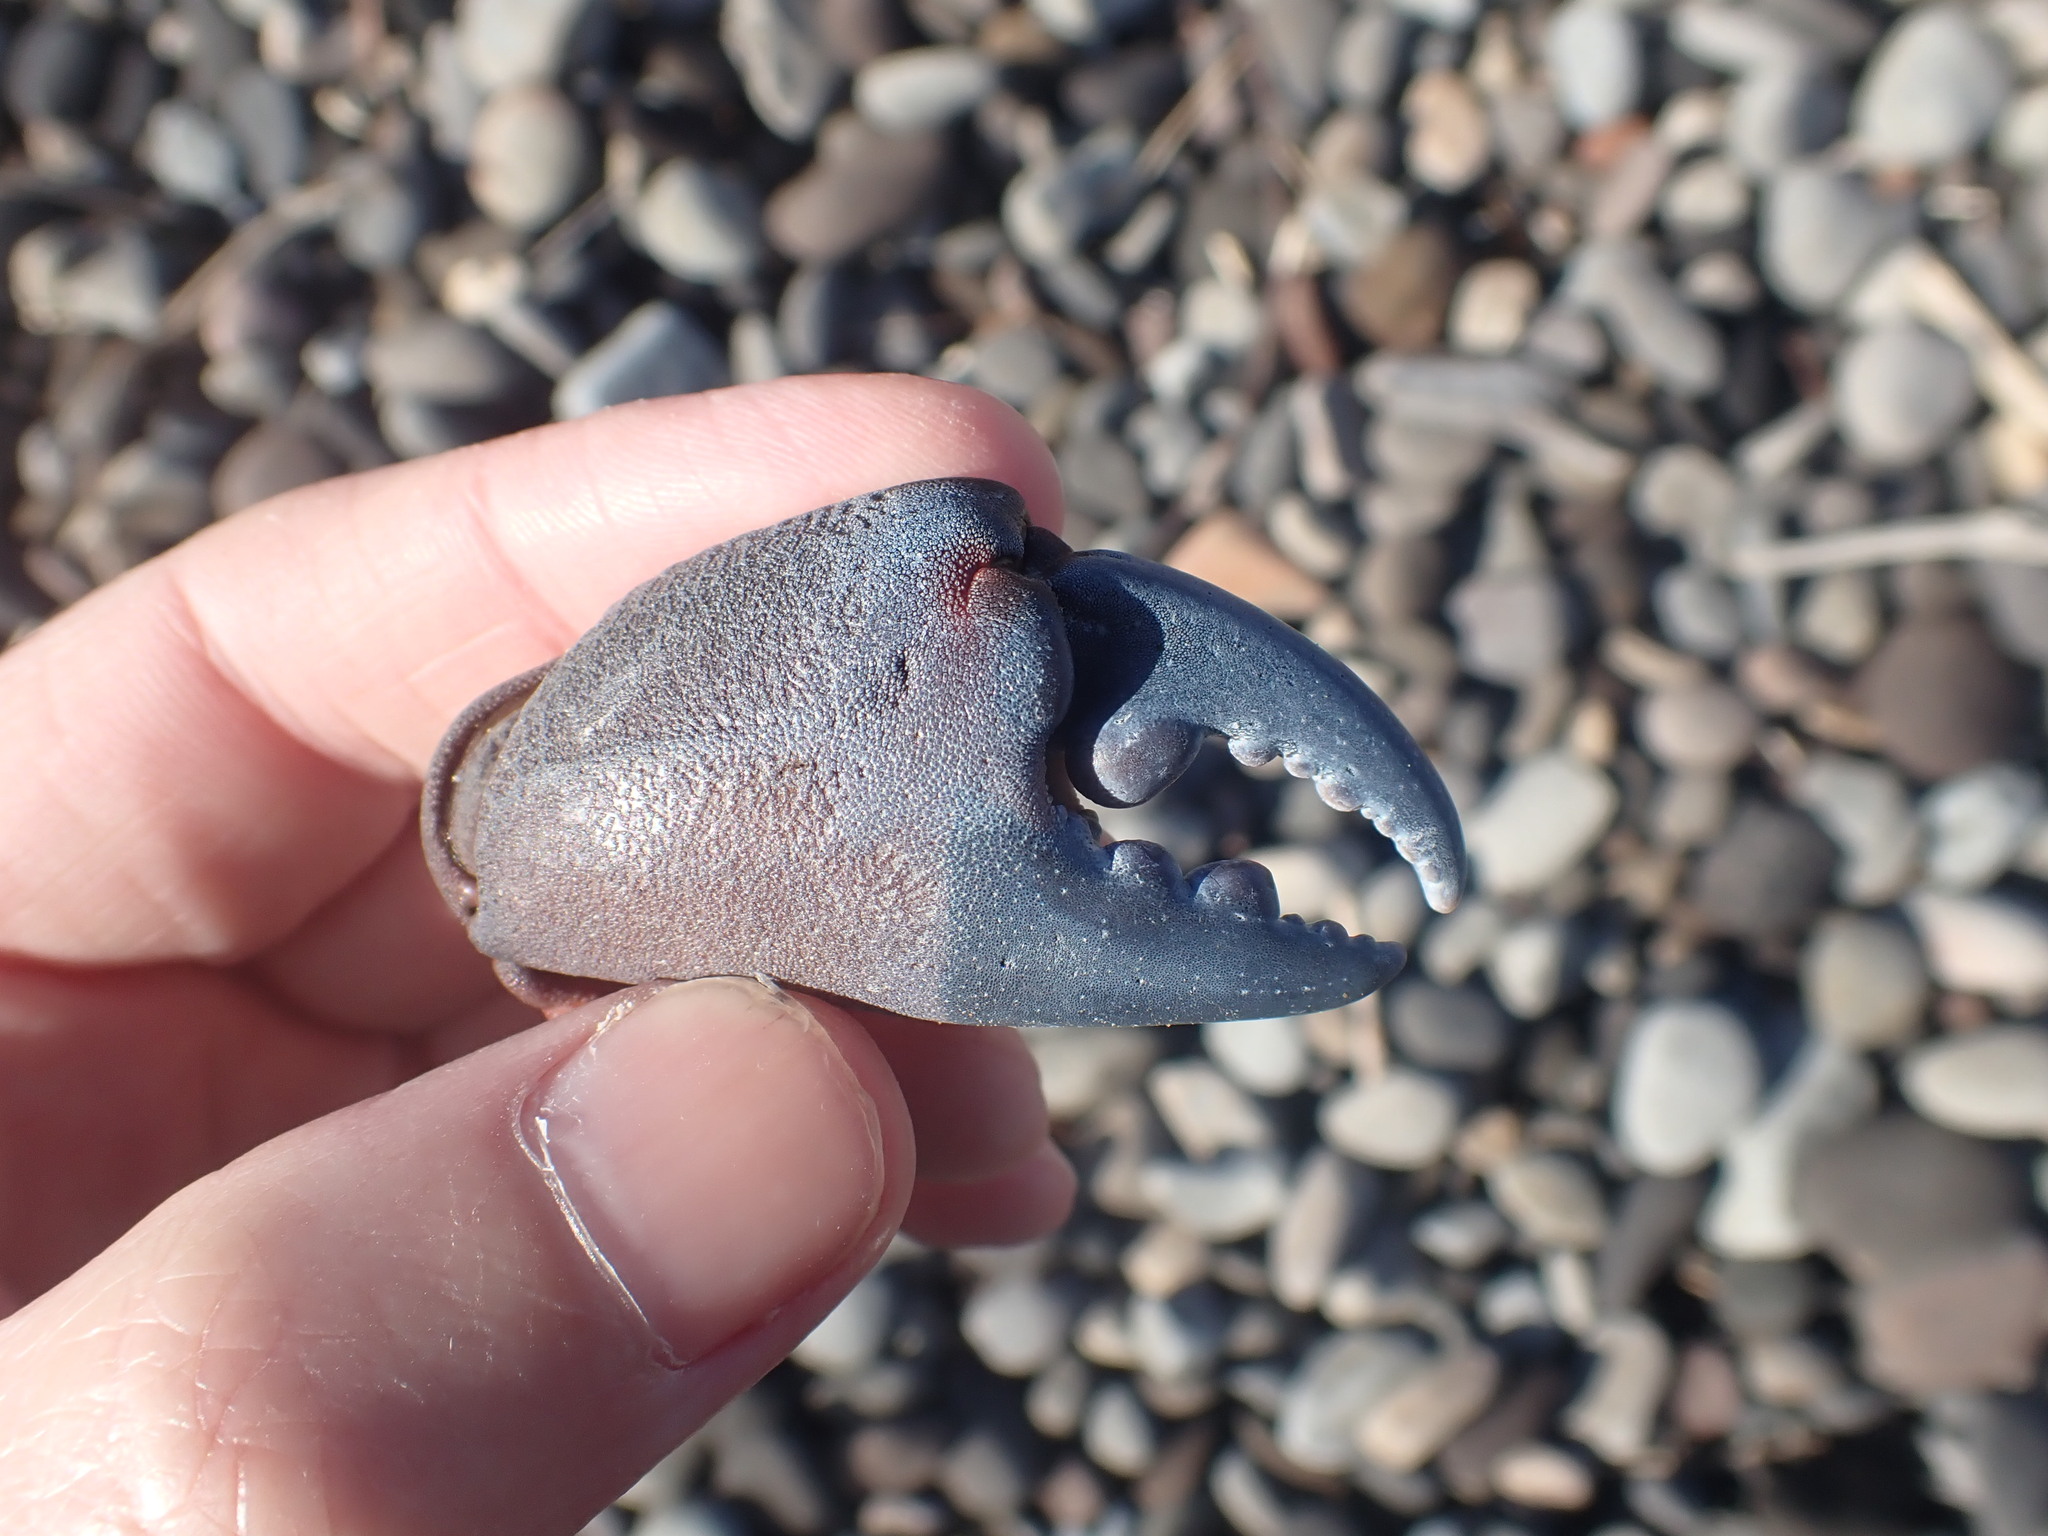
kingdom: Animalia
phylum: Arthropoda
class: Malacostraca
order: Decapoda
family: Oziidae
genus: Ozius
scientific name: Ozius deplanatus
